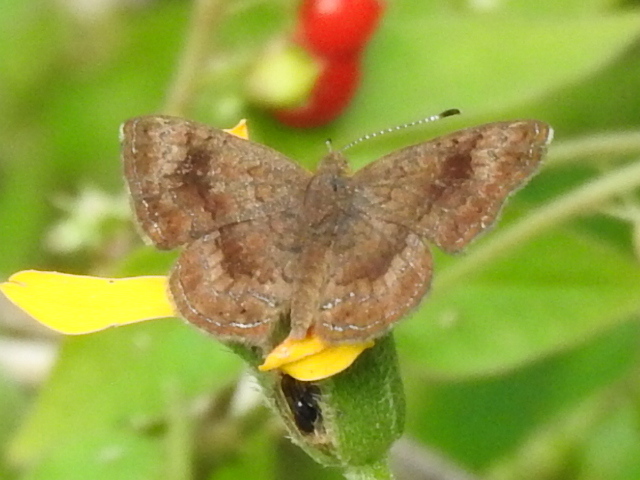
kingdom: Animalia
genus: Calephelis
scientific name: Calephelis nemesis
